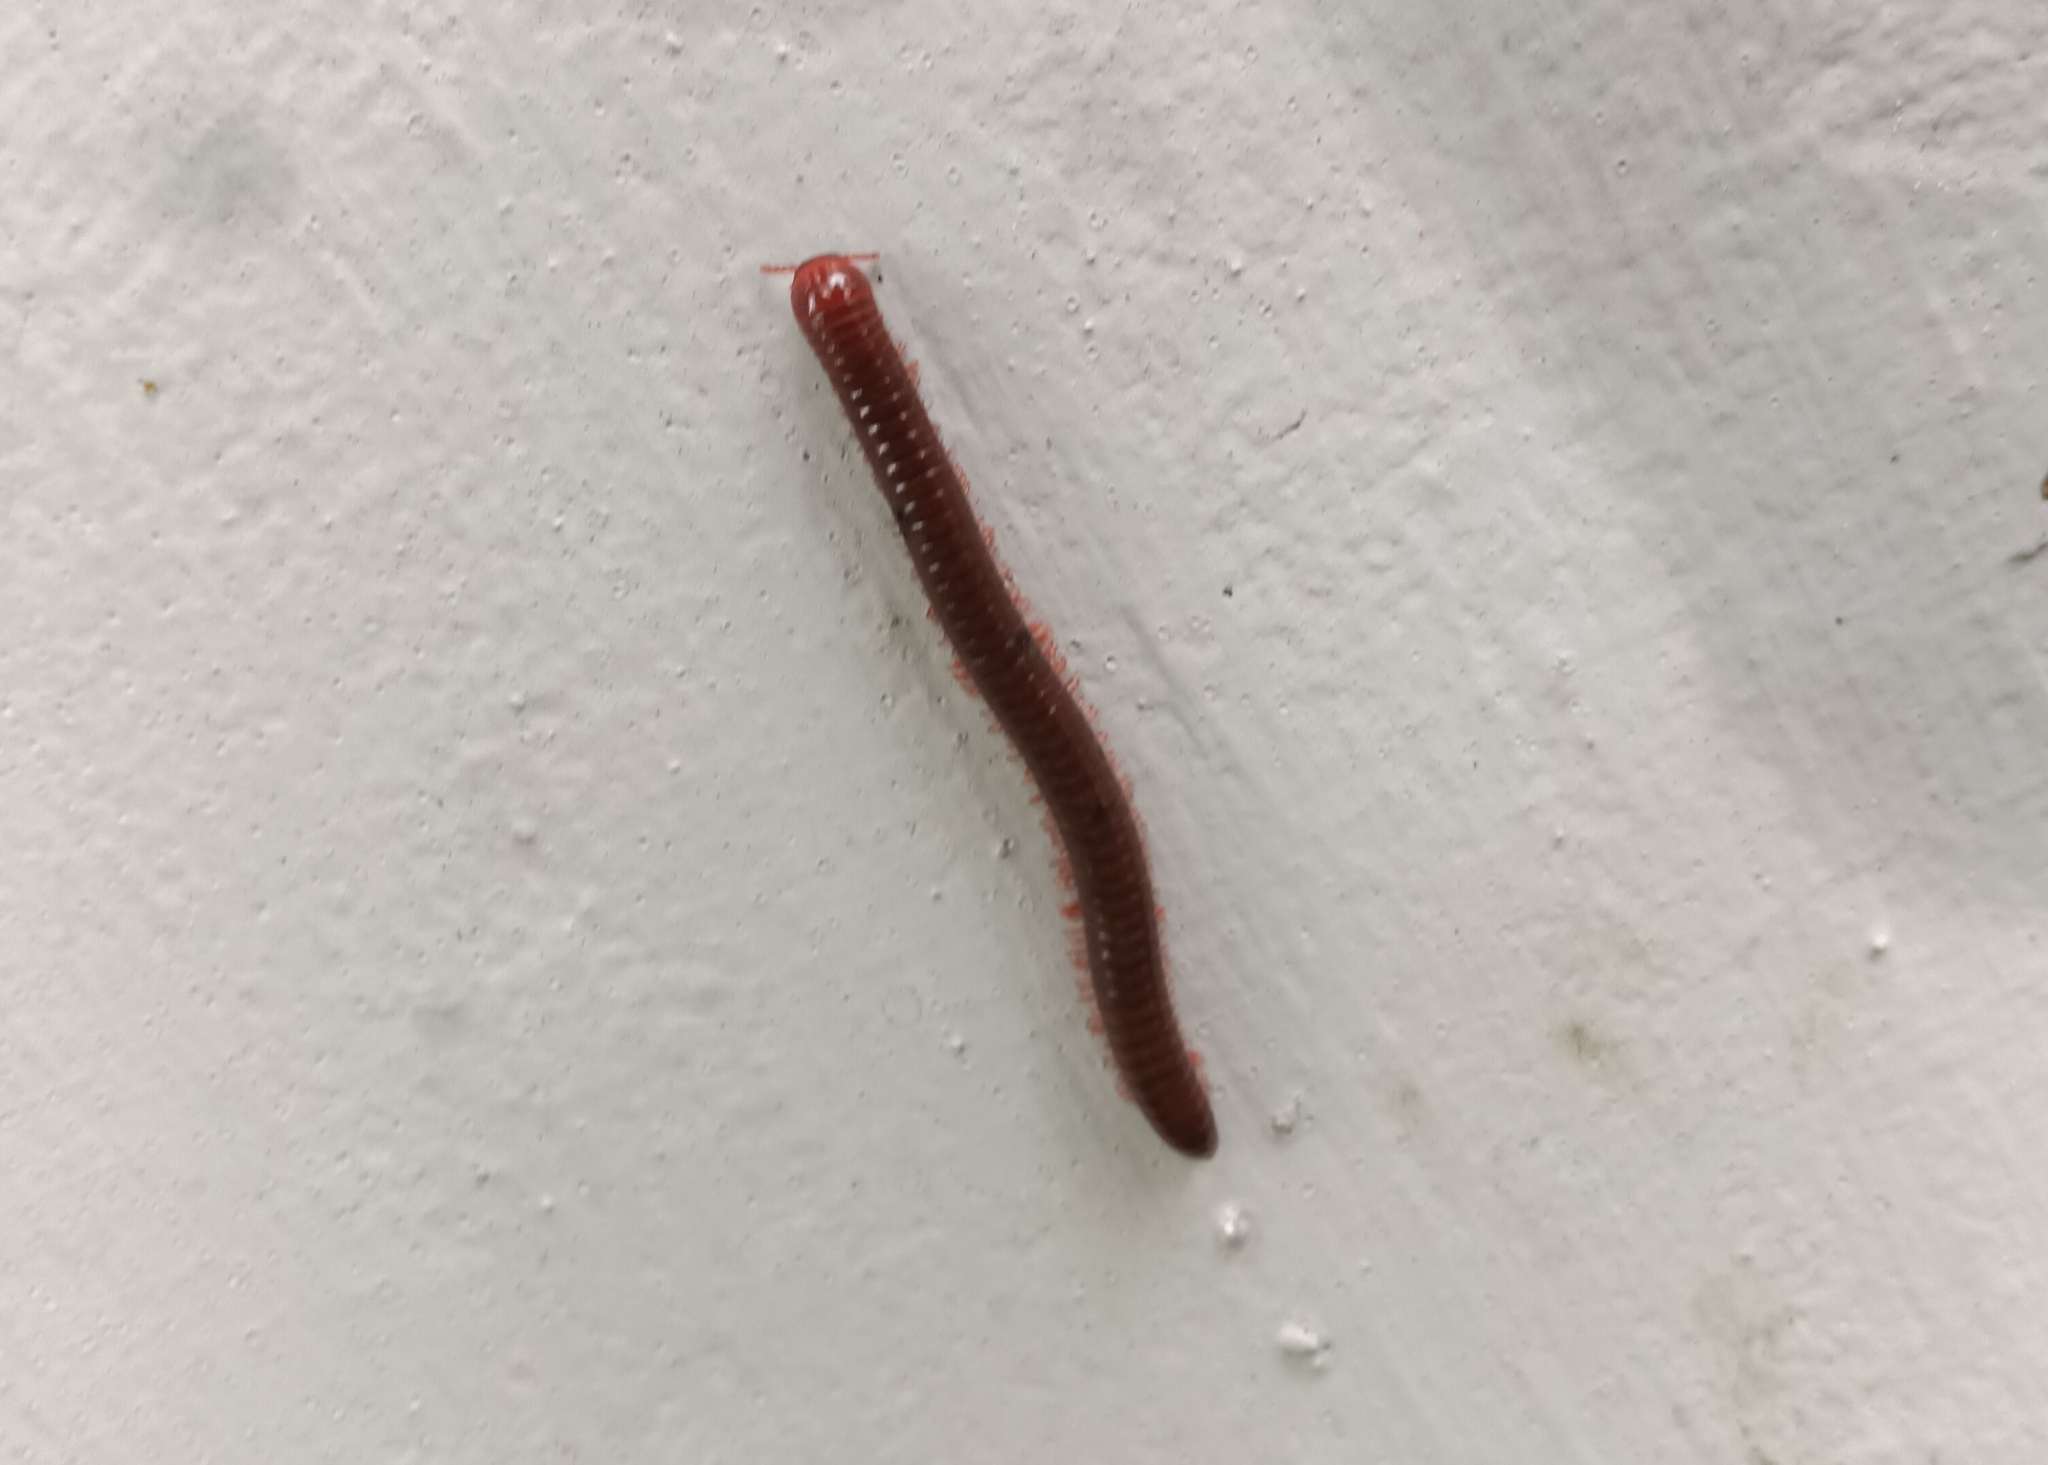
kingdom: Animalia
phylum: Arthropoda
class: Diplopoda
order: Spirobolida
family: Pachybolidae
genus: Trigoniulus
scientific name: Trigoniulus corallinus
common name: Millipede
